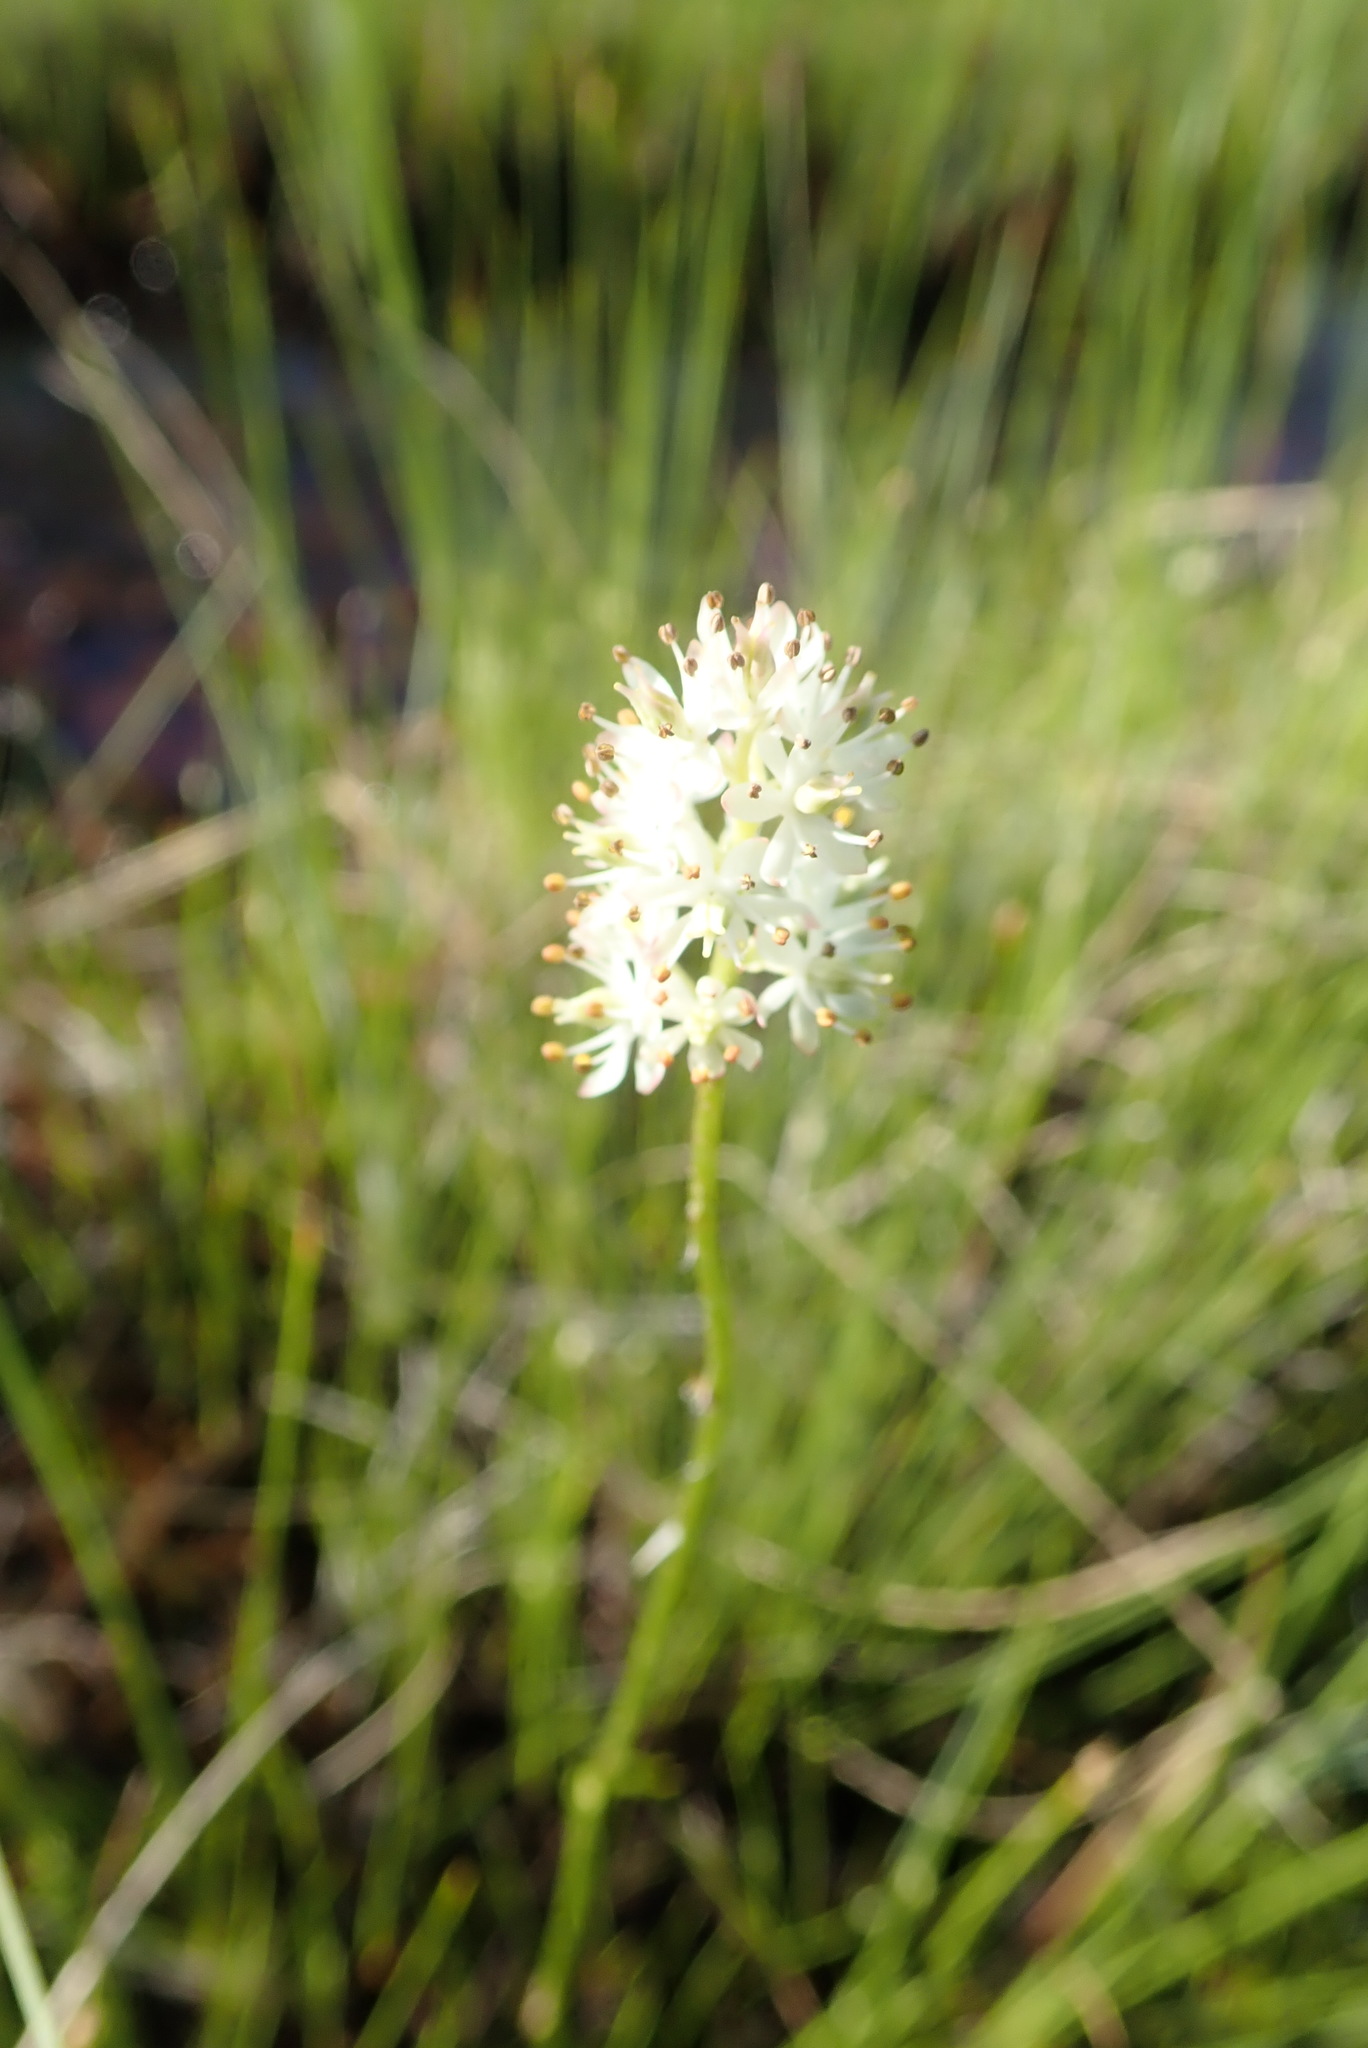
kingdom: Plantae
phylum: Tracheophyta
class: Liliopsida
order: Alismatales
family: Tofieldiaceae
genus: Triantha
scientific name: Triantha glutinosa
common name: Glutinous tofieldia
